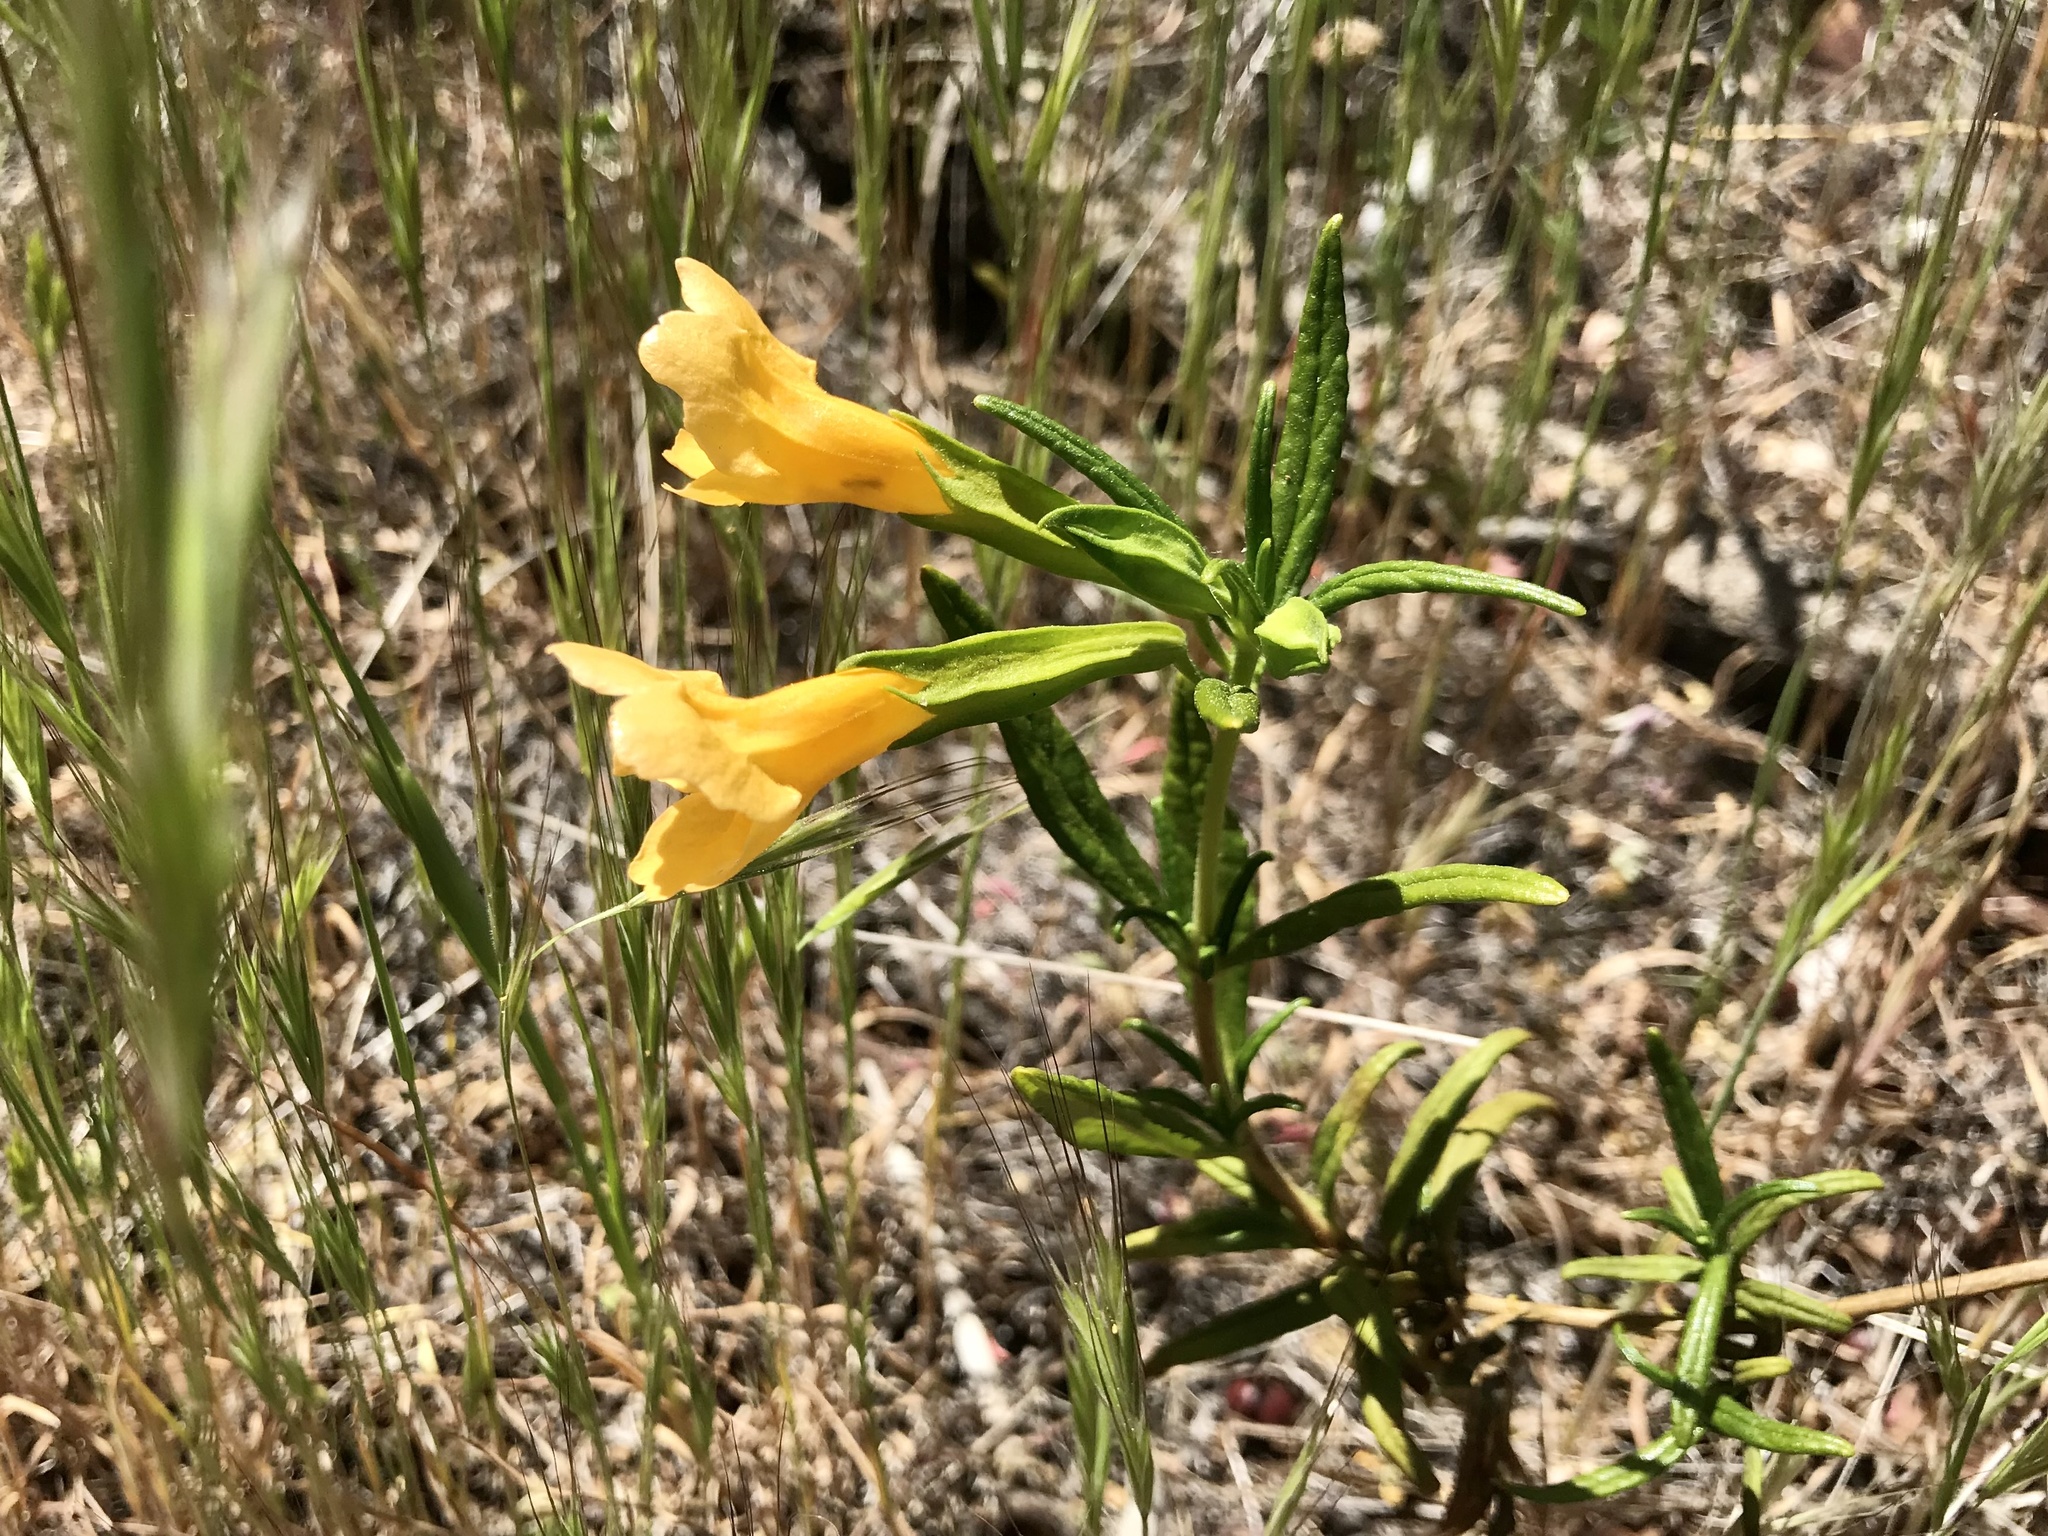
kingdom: Plantae
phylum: Tracheophyta
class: Magnoliopsida
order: Lamiales
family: Phrymaceae
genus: Diplacus
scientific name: Diplacus aurantiacus
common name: Bush monkey-flower
